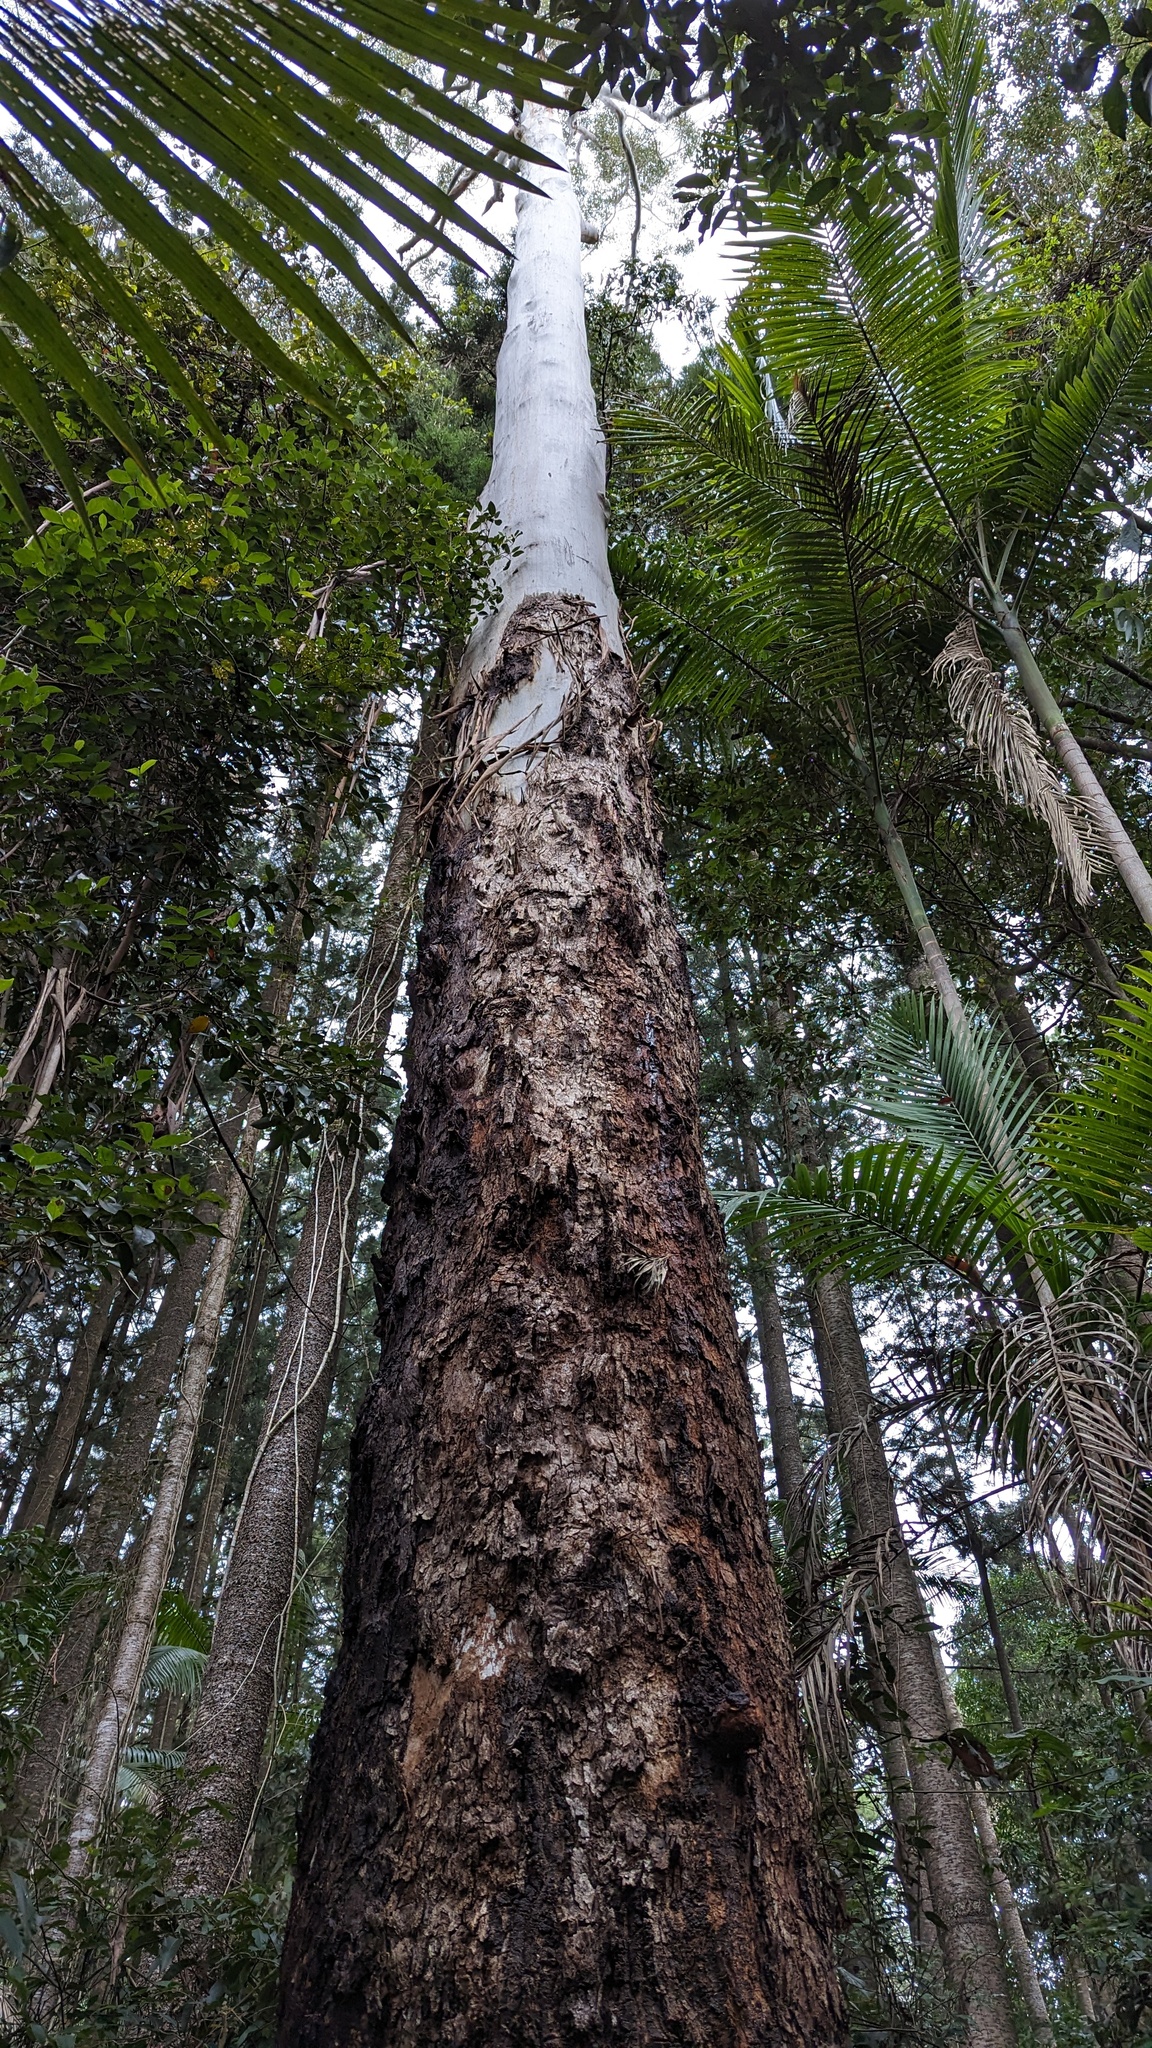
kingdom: Plantae
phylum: Tracheophyta
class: Magnoliopsida
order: Myrtales
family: Myrtaceae
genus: Eucalyptus
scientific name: Eucalyptus grandis
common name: Grand eucalyptus
